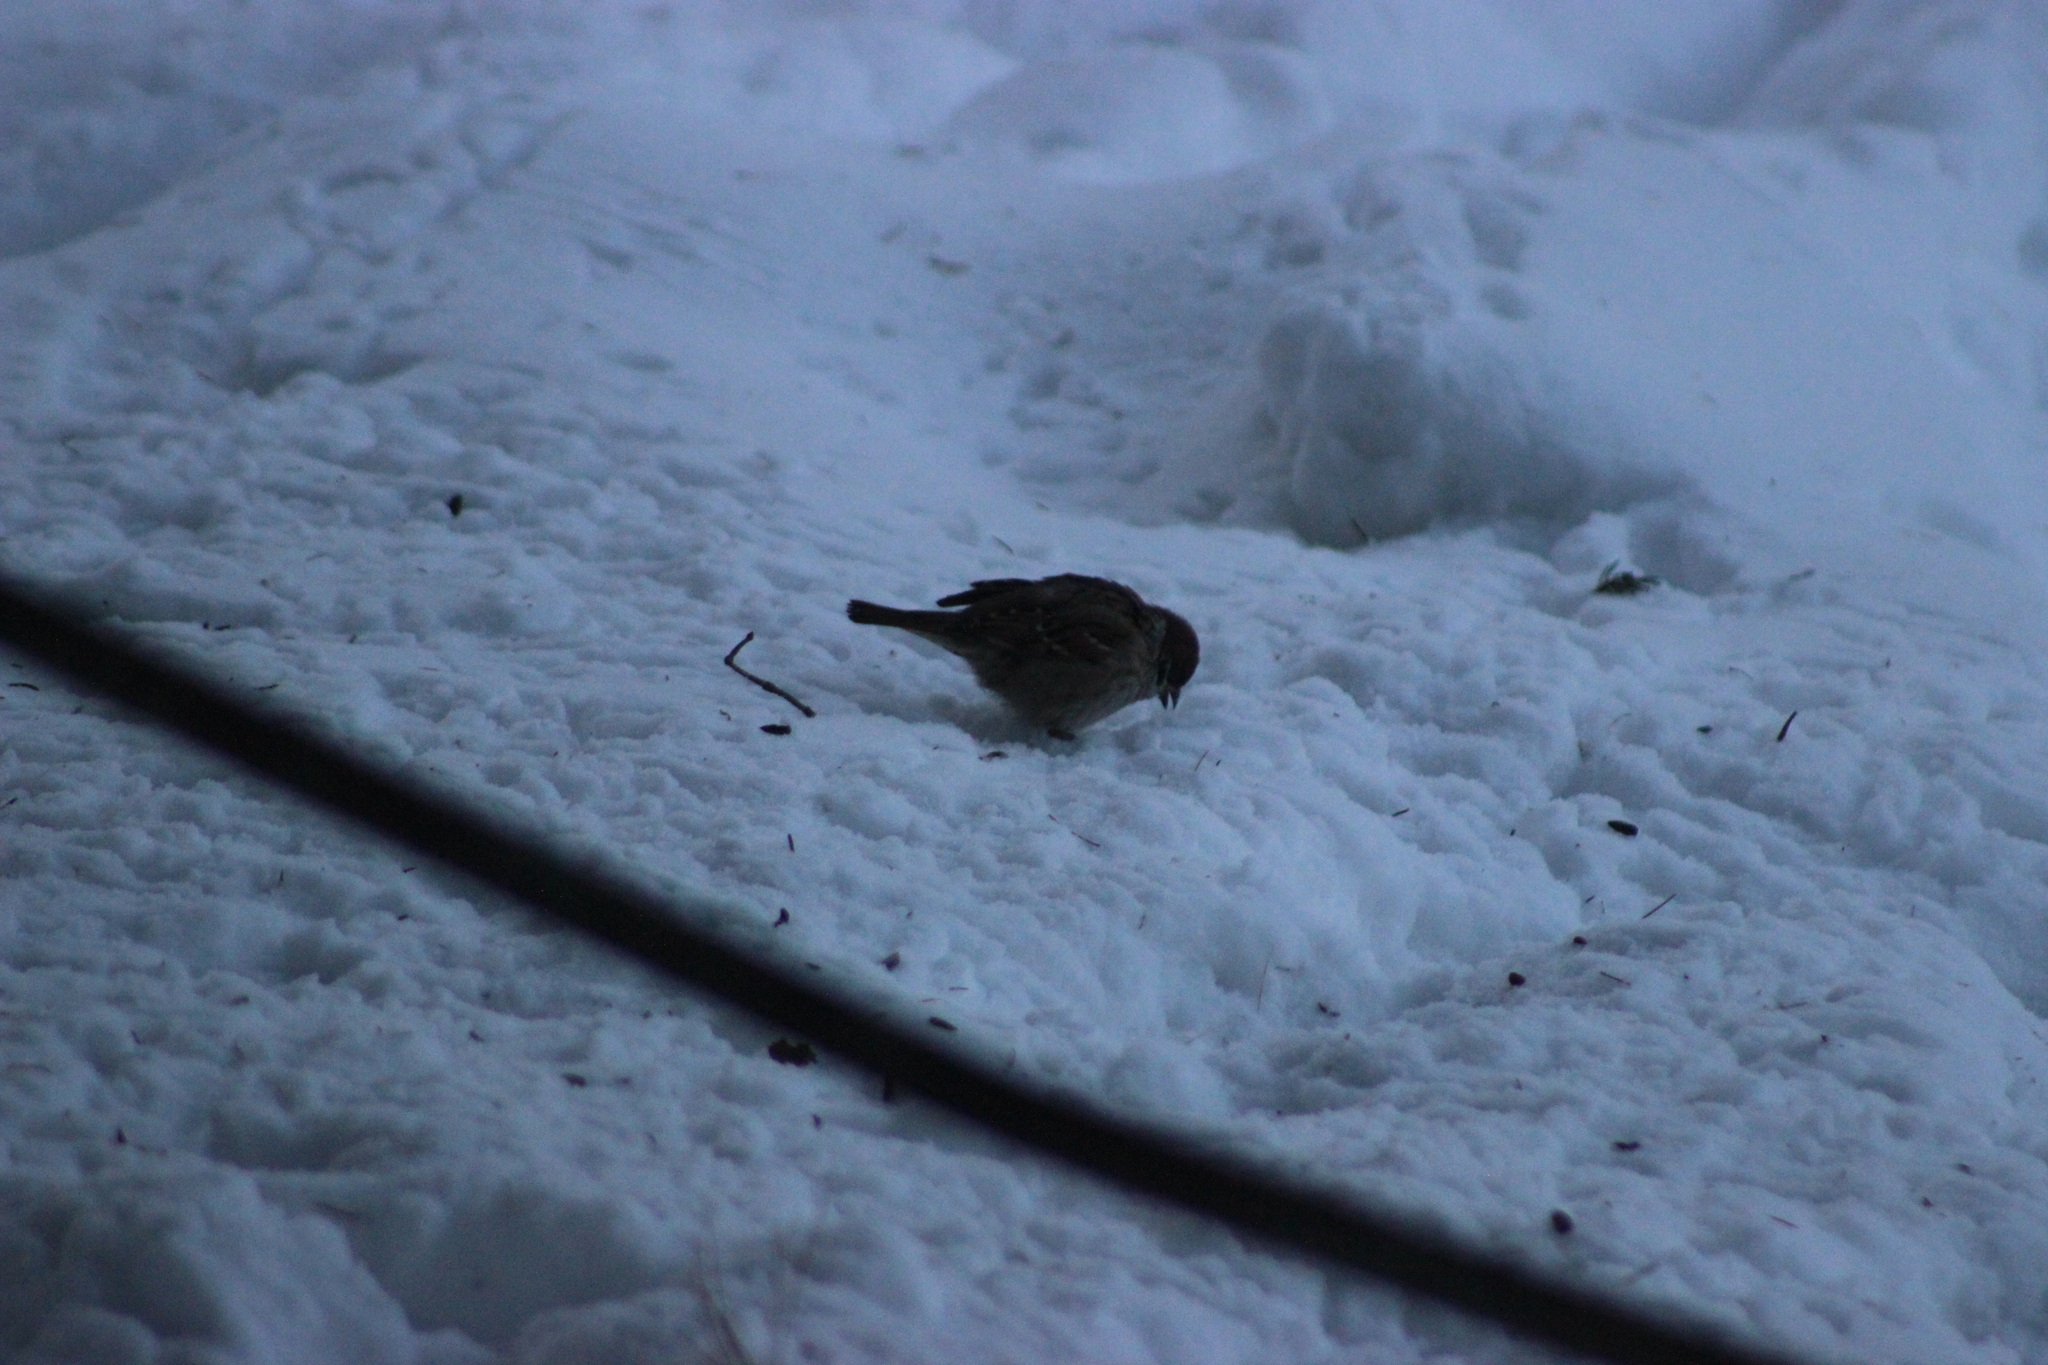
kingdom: Animalia
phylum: Chordata
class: Aves
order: Passeriformes
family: Passeridae
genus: Passer
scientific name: Passer montanus
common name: Eurasian tree sparrow
